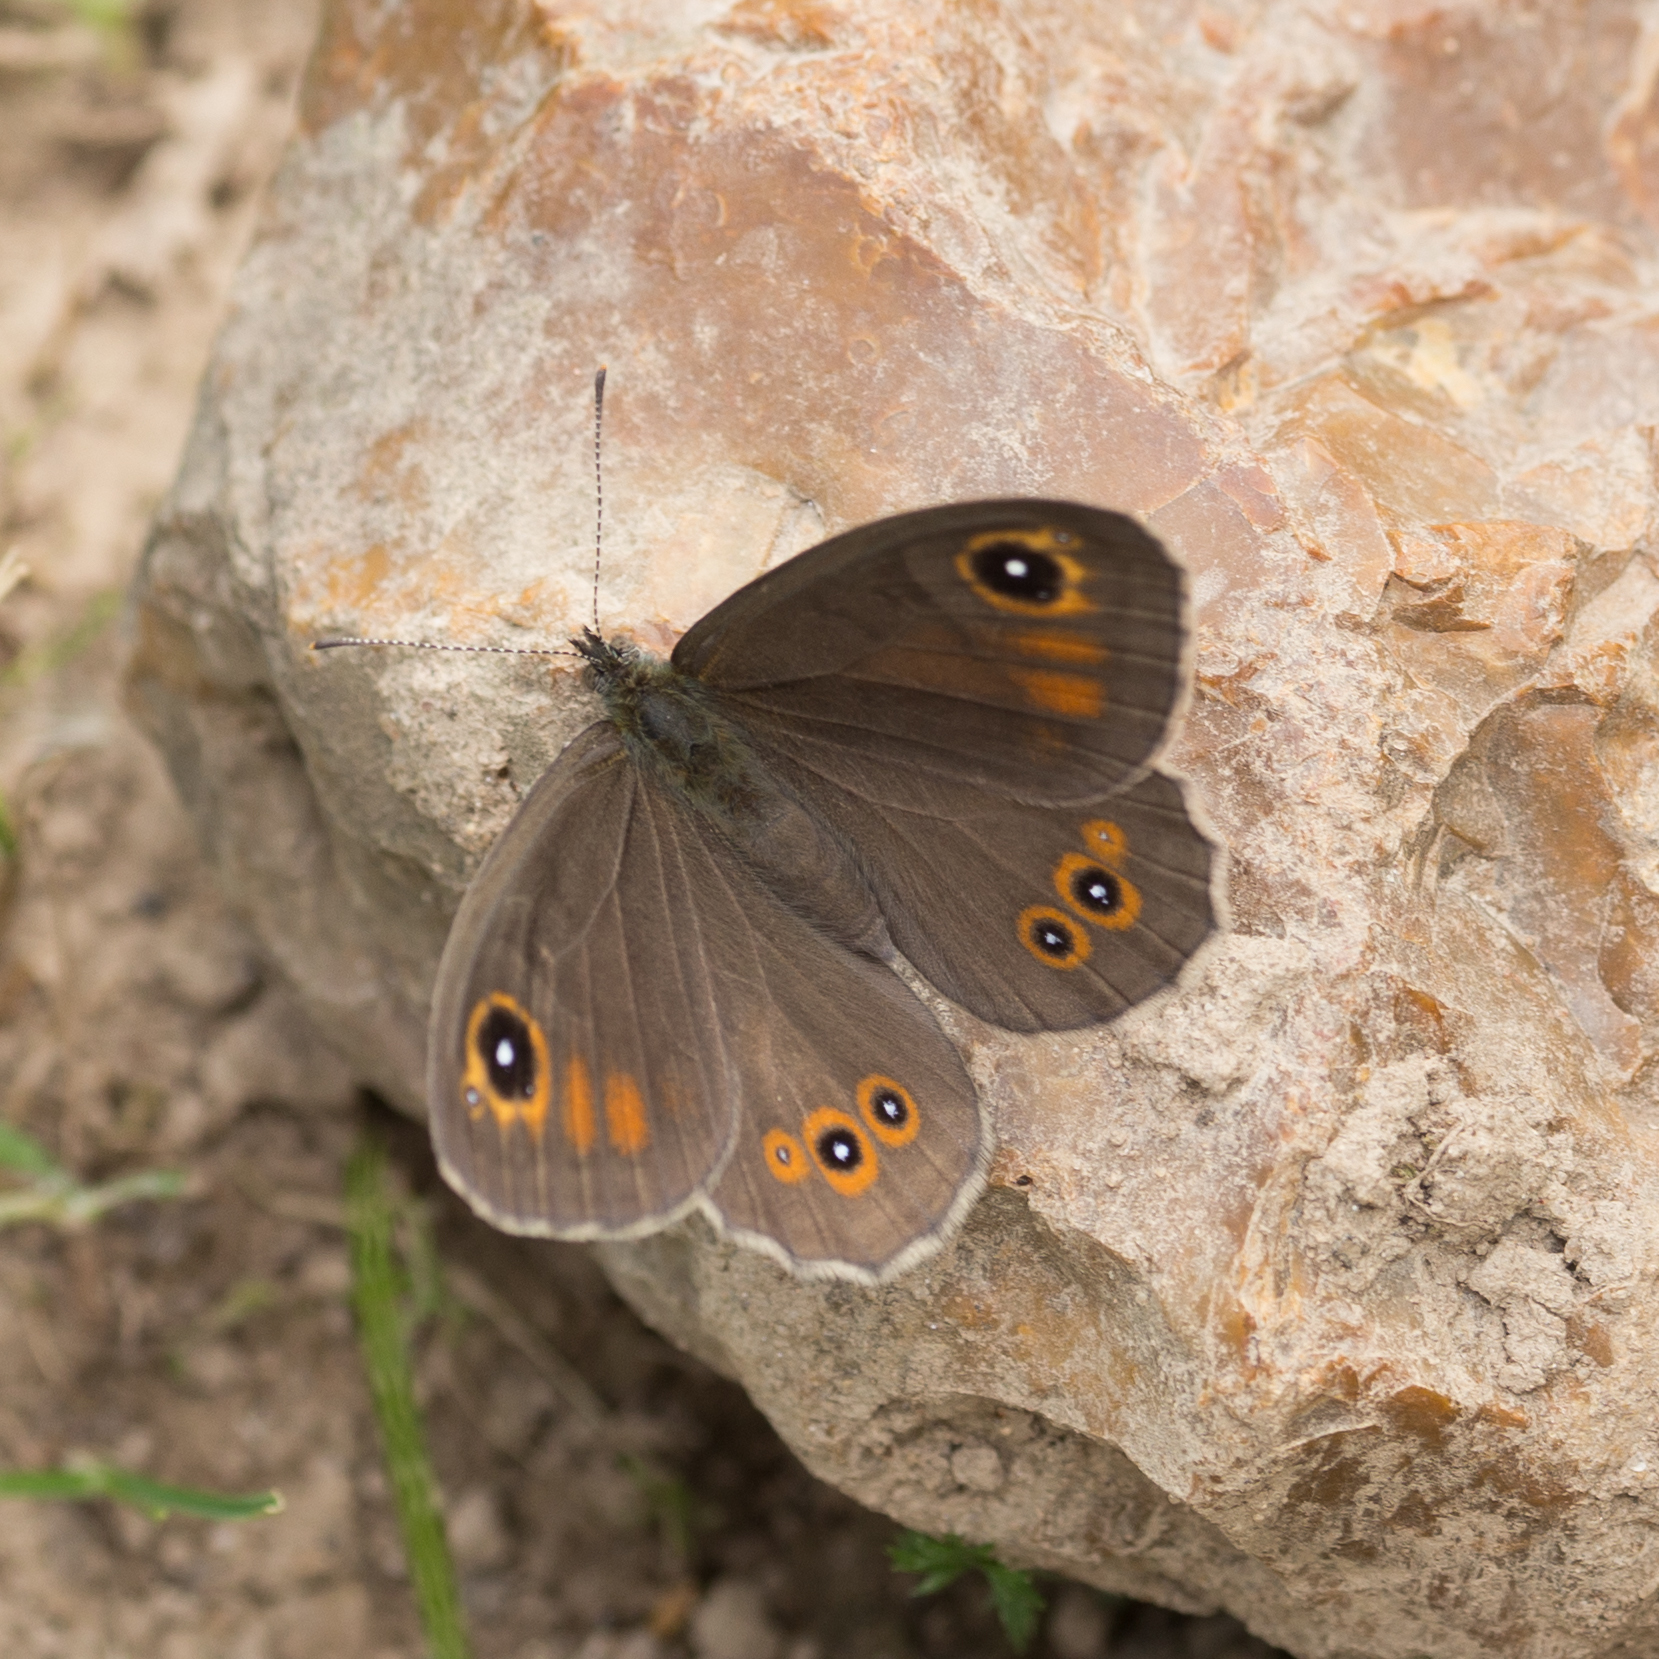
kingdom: Animalia
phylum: Arthropoda
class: Insecta
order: Lepidoptera
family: Nymphalidae
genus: Pararge
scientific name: Pararge Lasiommata maera
